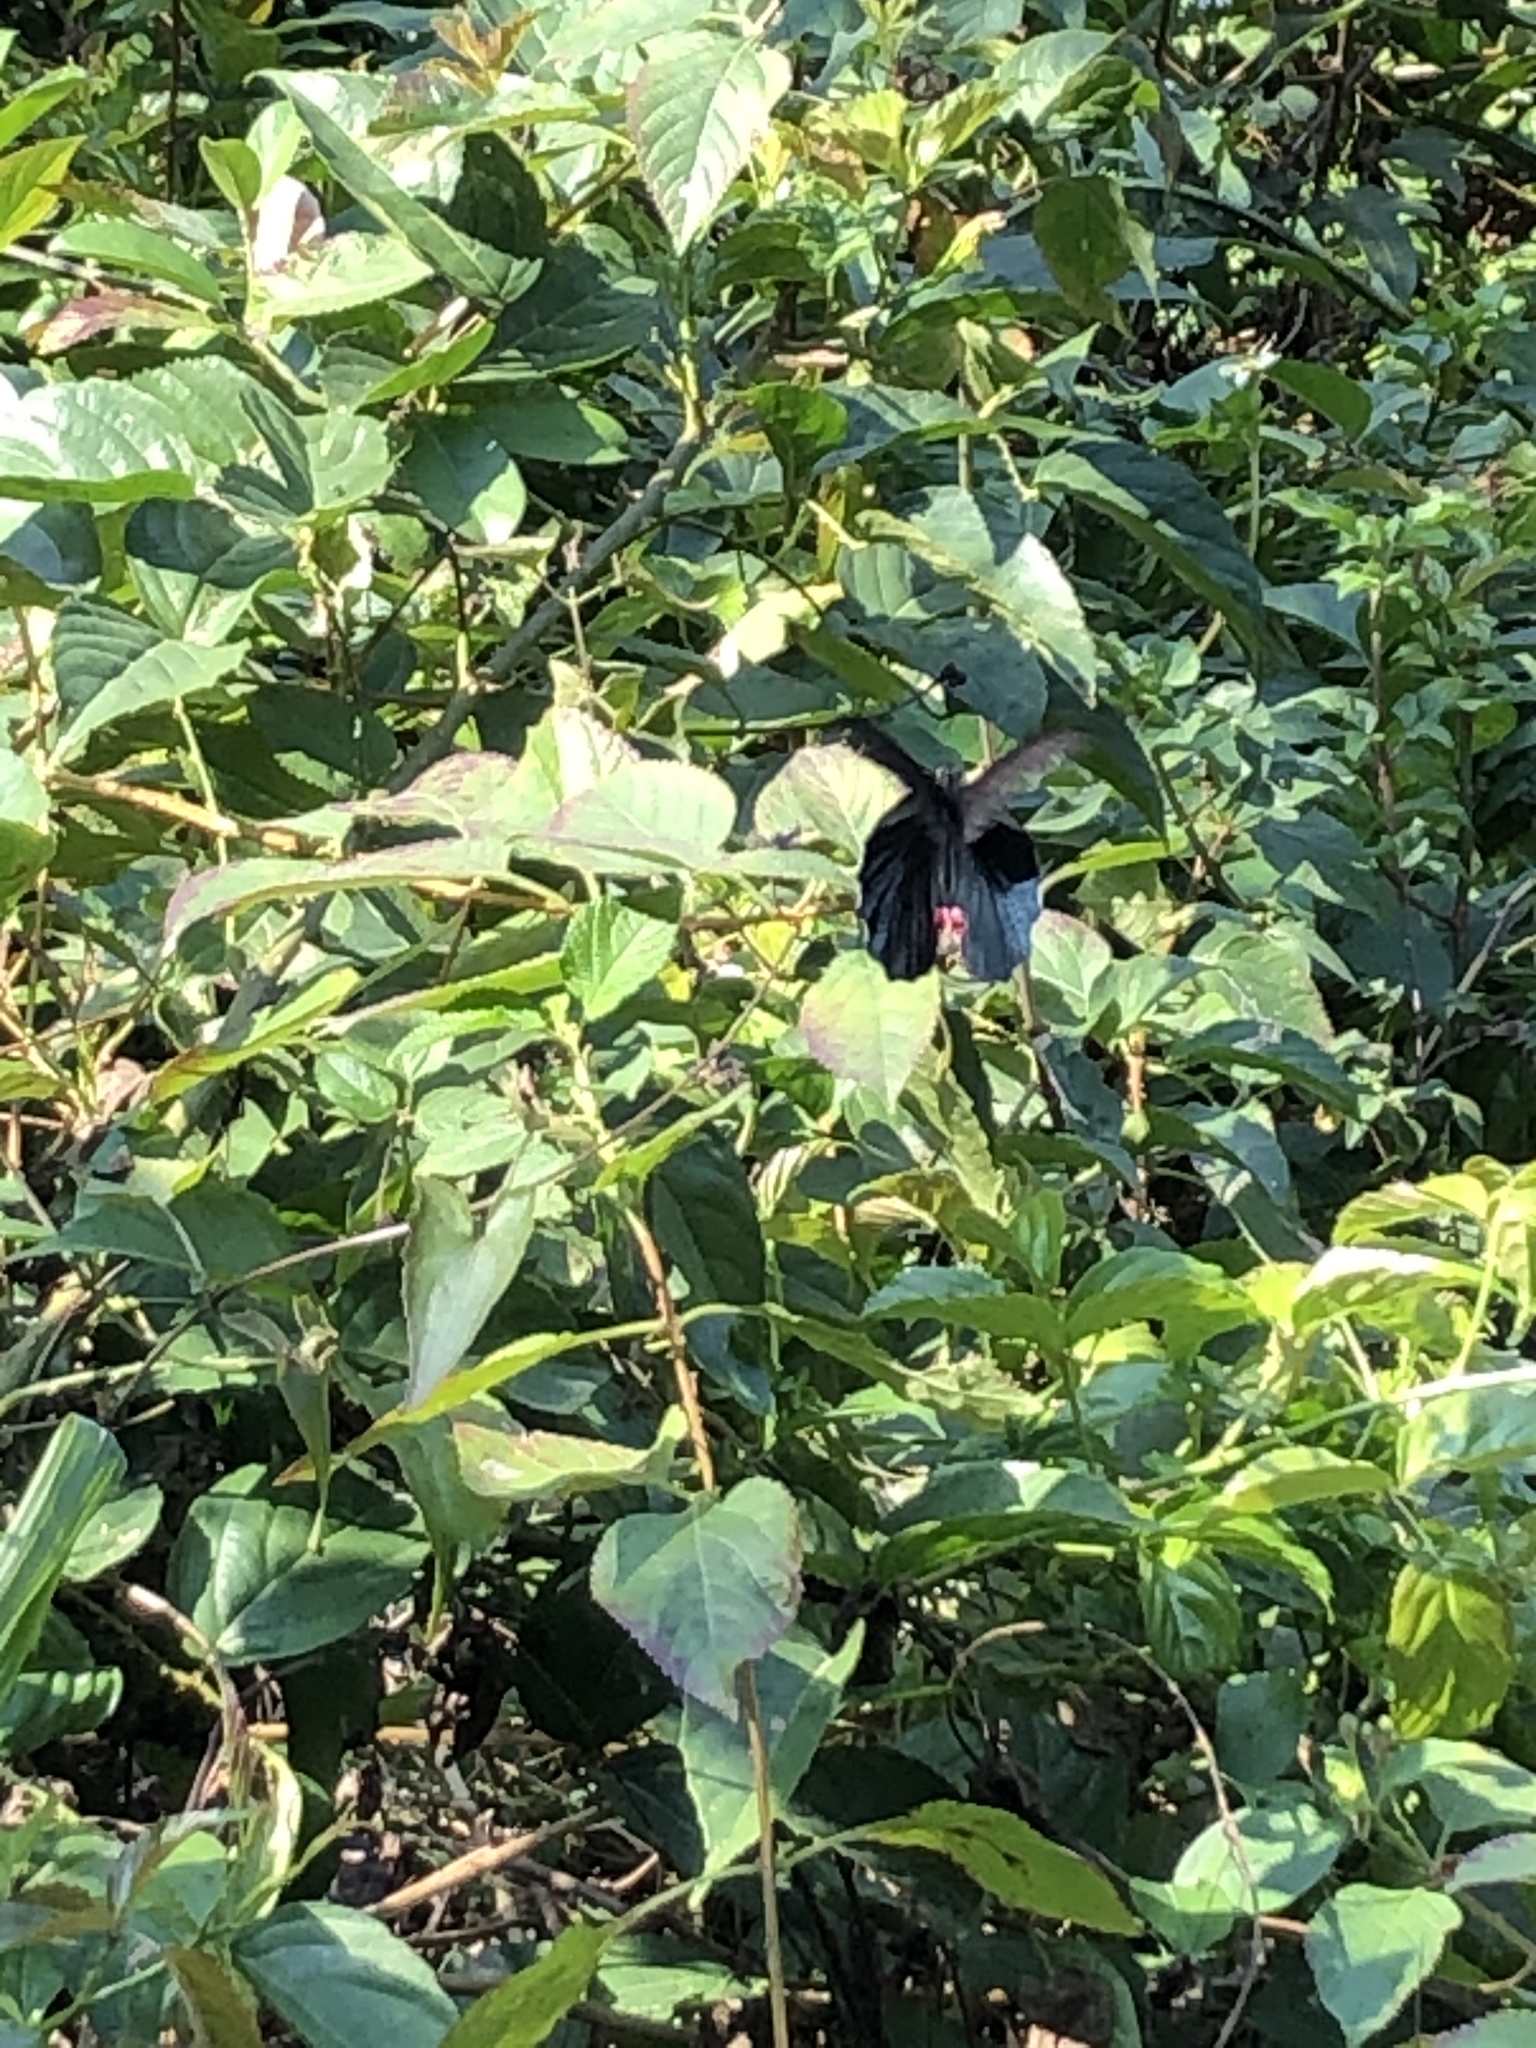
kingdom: Animalia
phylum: Arthropoda
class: Insecta
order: Lepidoptera
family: Papilionidae
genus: Papilio
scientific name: Papilio protenor
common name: Spangle
